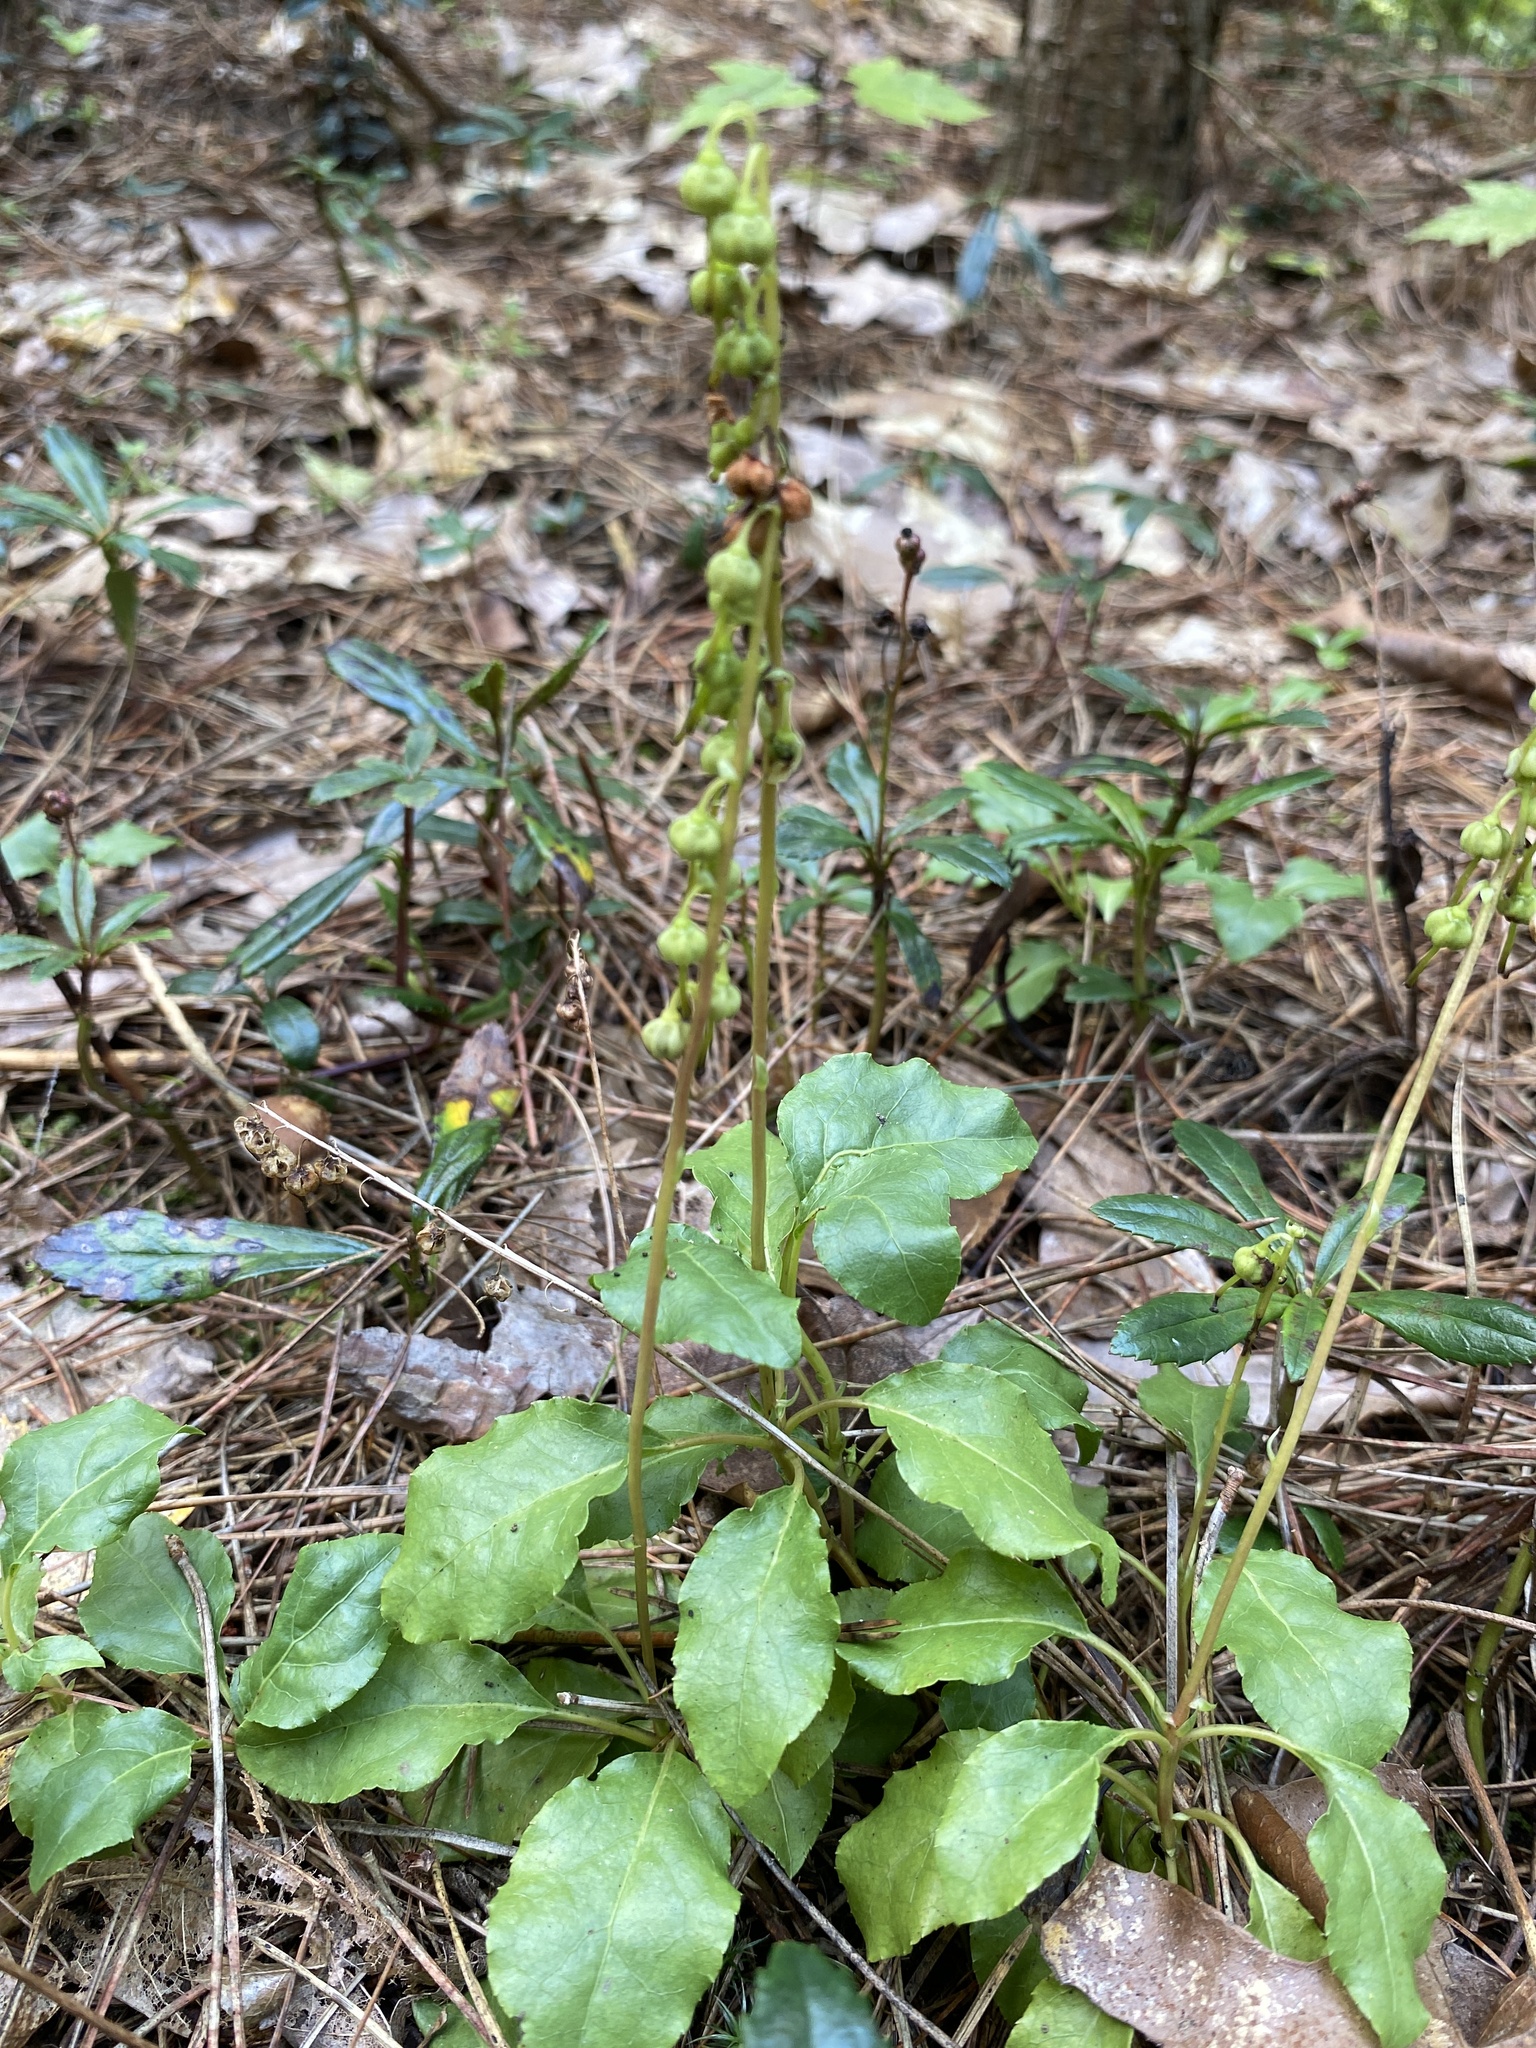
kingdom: Plantae
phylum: Tracheophyta
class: Magnoliopsida
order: Ericales
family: Ericaceae
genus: Orthilia
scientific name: Orthilia secunda
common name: One-sided orthilia
